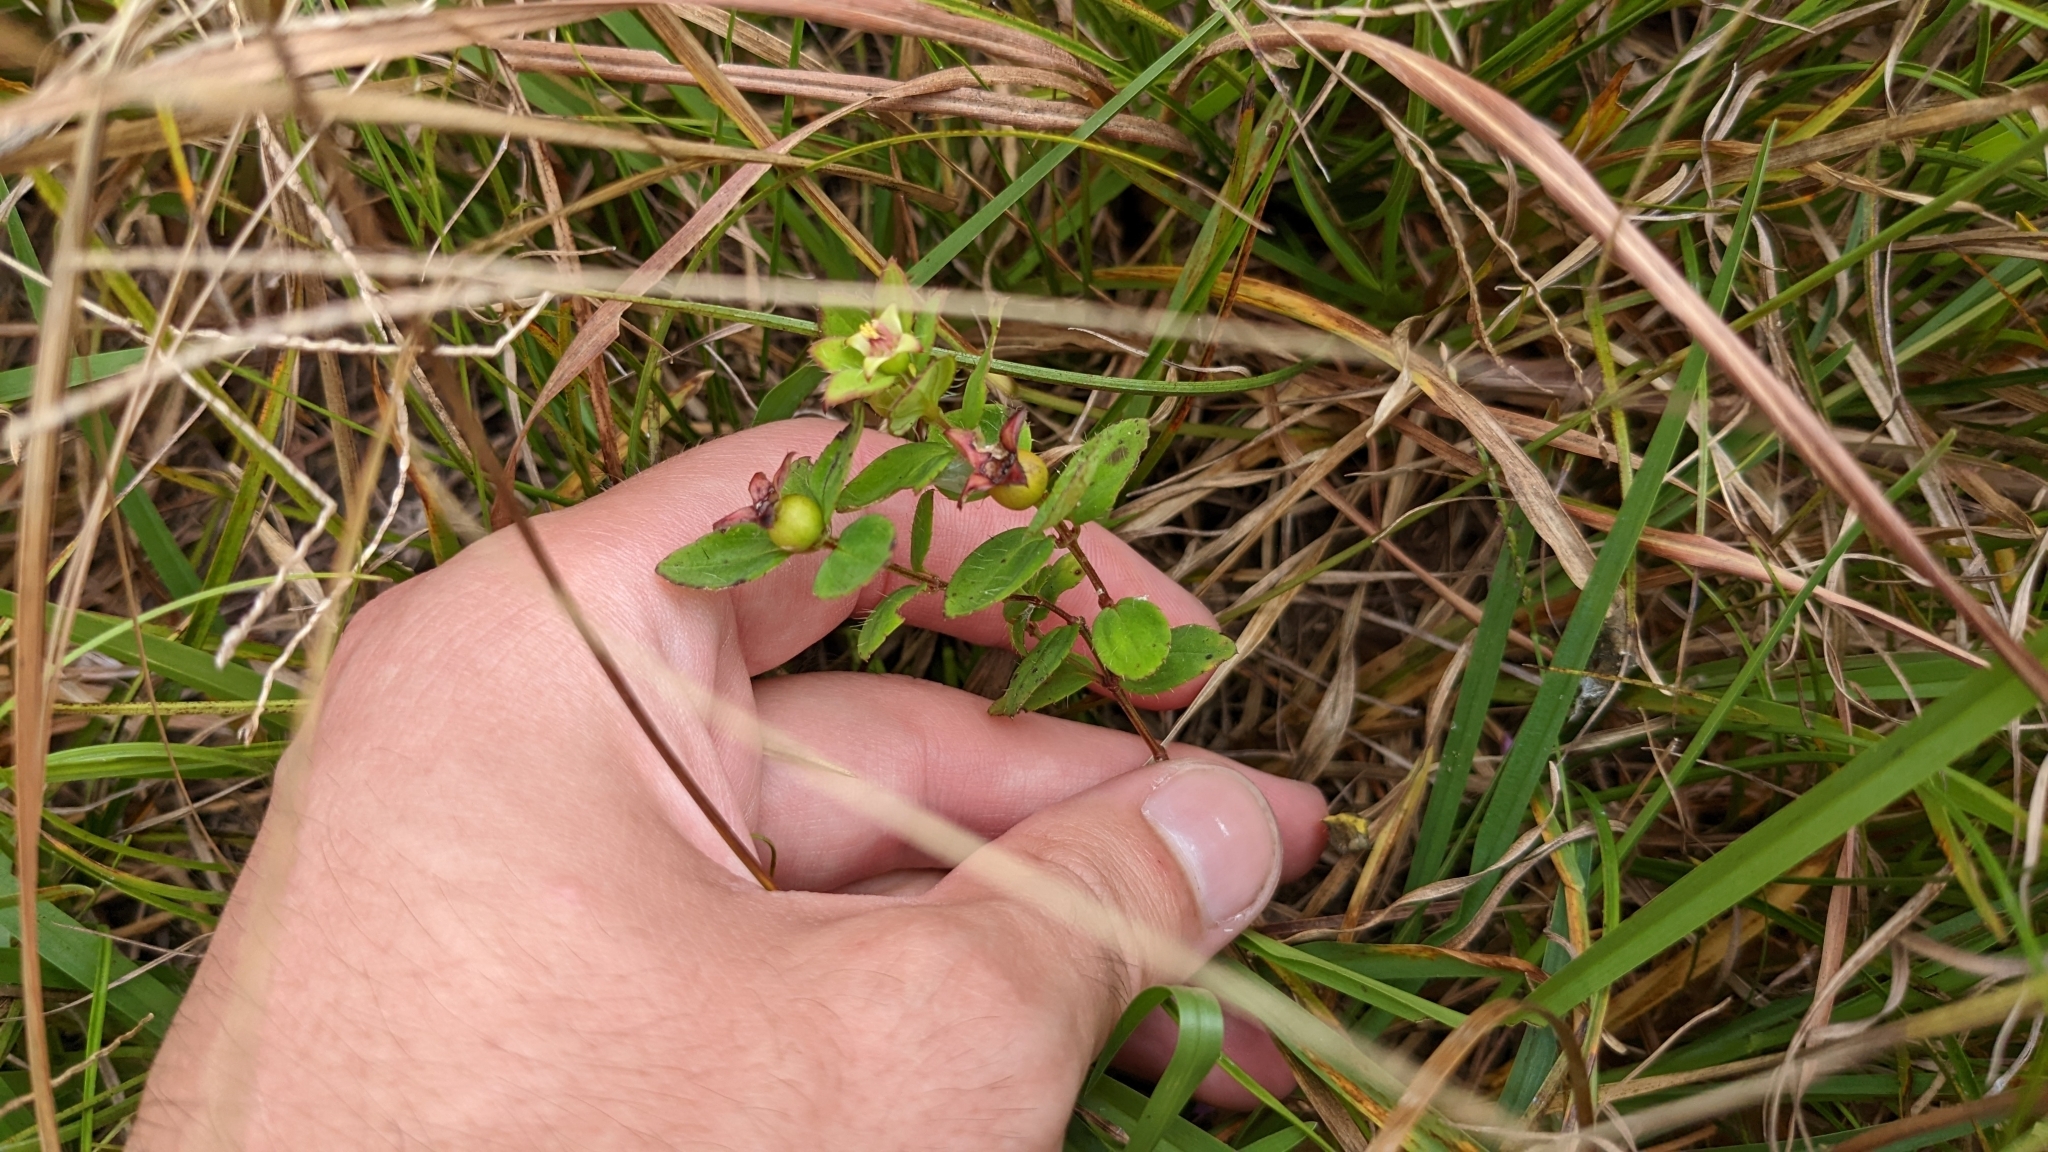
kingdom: Plantae
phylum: Tracheophyta
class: Magnoliopsida
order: Myrtales
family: Melastomataceae
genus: Rhexia
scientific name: Rhexia petiolata
